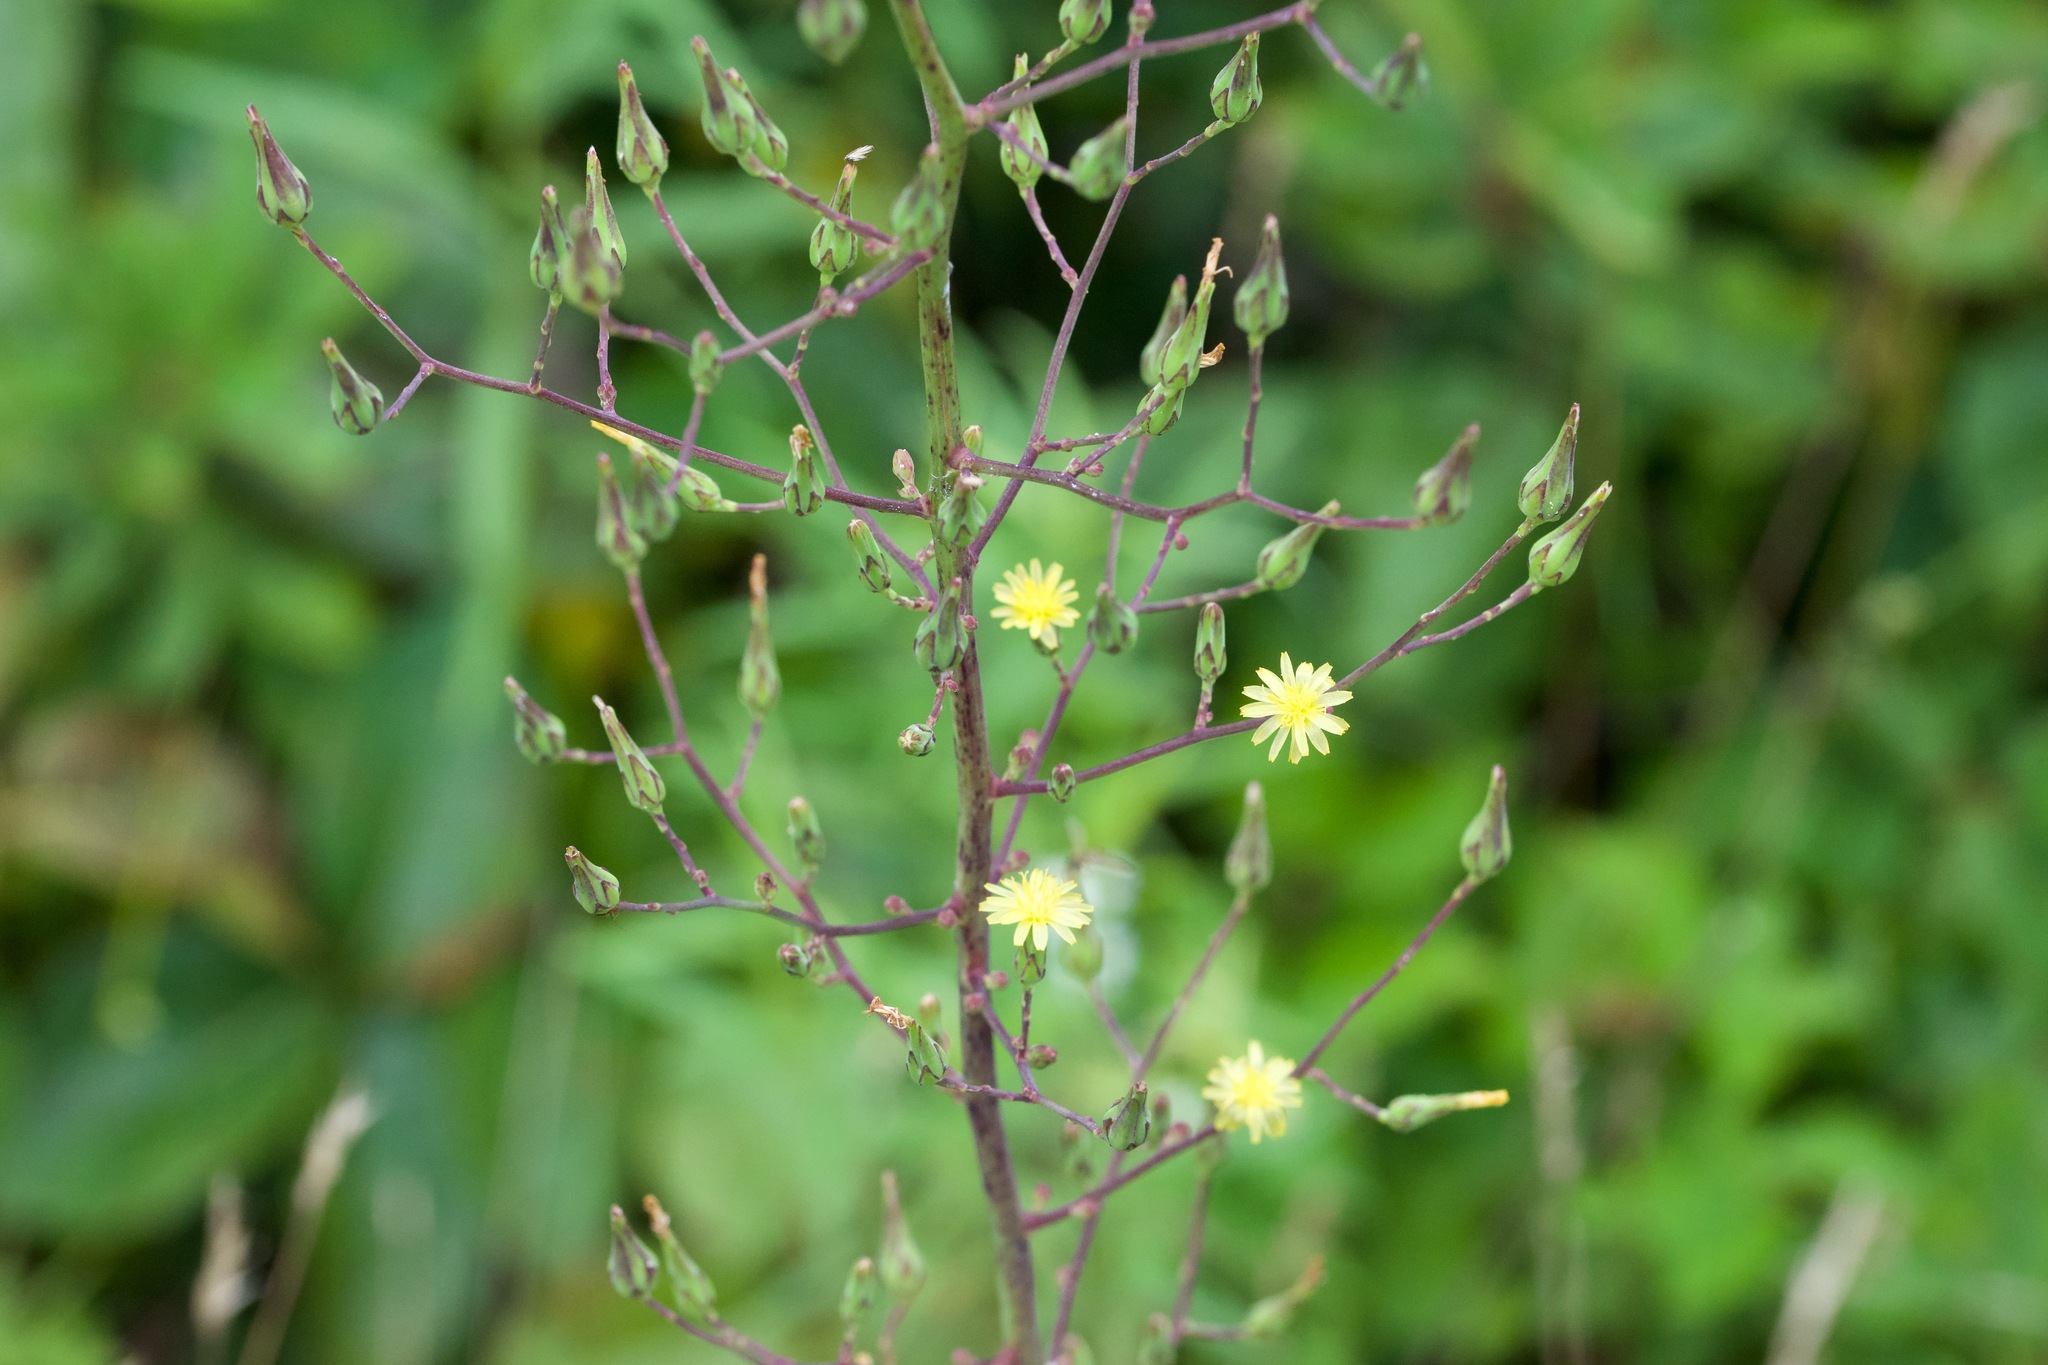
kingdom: Plantae
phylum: Tracheophyta
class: Magnoliopsida
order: Asterales
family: Asteraceae
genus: Lactuca
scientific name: Lactuca canadensis
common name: Canada lettuce
